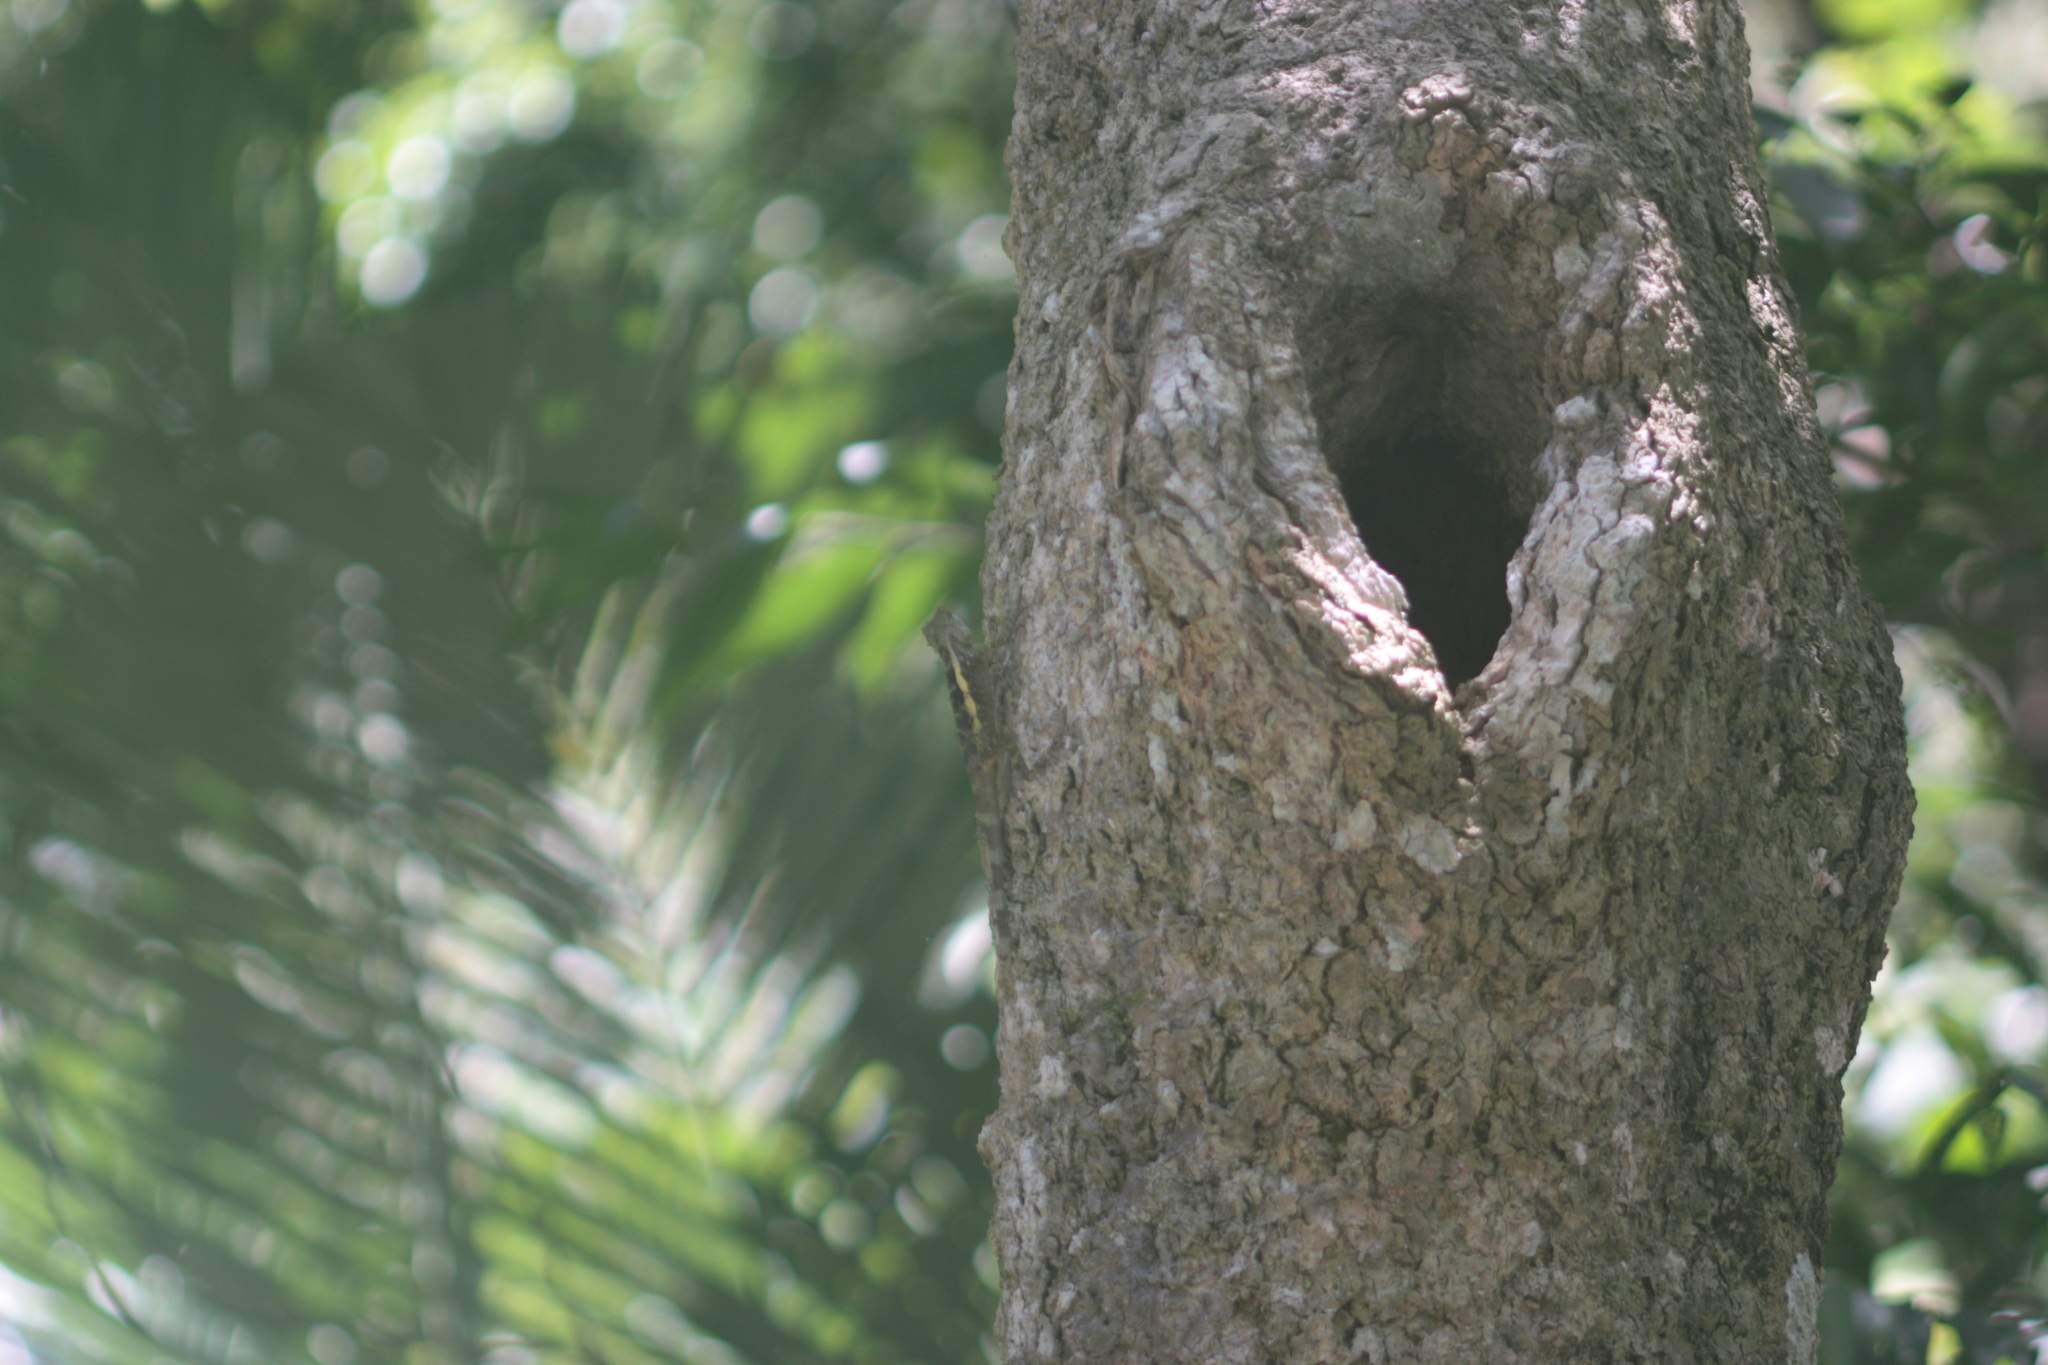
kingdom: Animalia
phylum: Chordata
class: Squamata
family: Agamidae
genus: Diploderma
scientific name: Diploderma swinhonis
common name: Taiwan japalure
